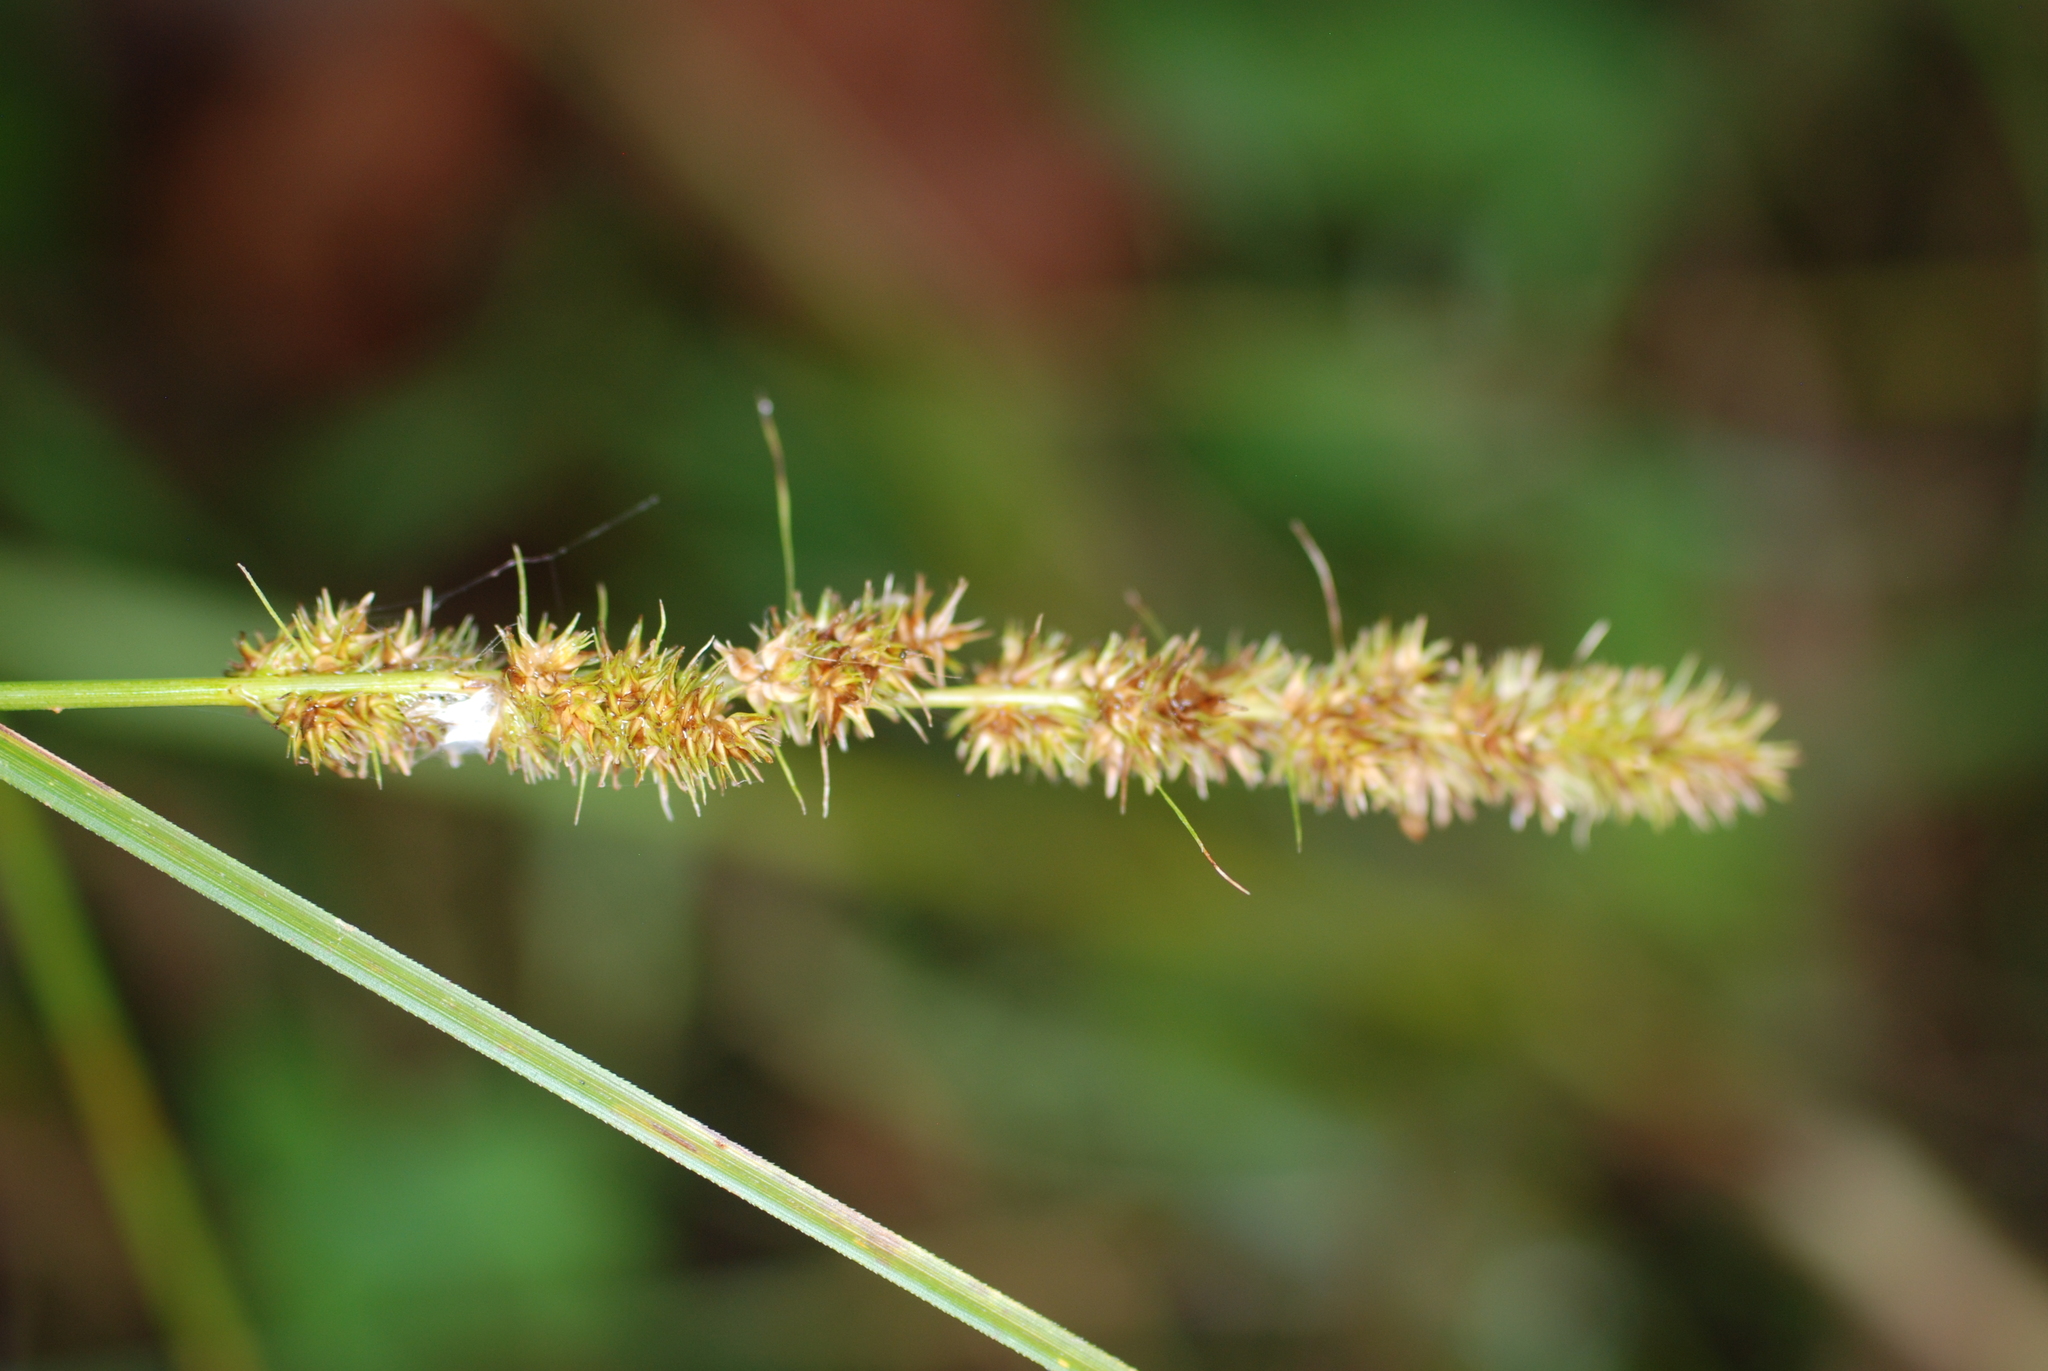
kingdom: Plantae
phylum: Tracheophyta
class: Liliopsida
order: Poales
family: Cyperaceae
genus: Carex
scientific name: Carex vulpinoidea
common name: American fox-sedge
